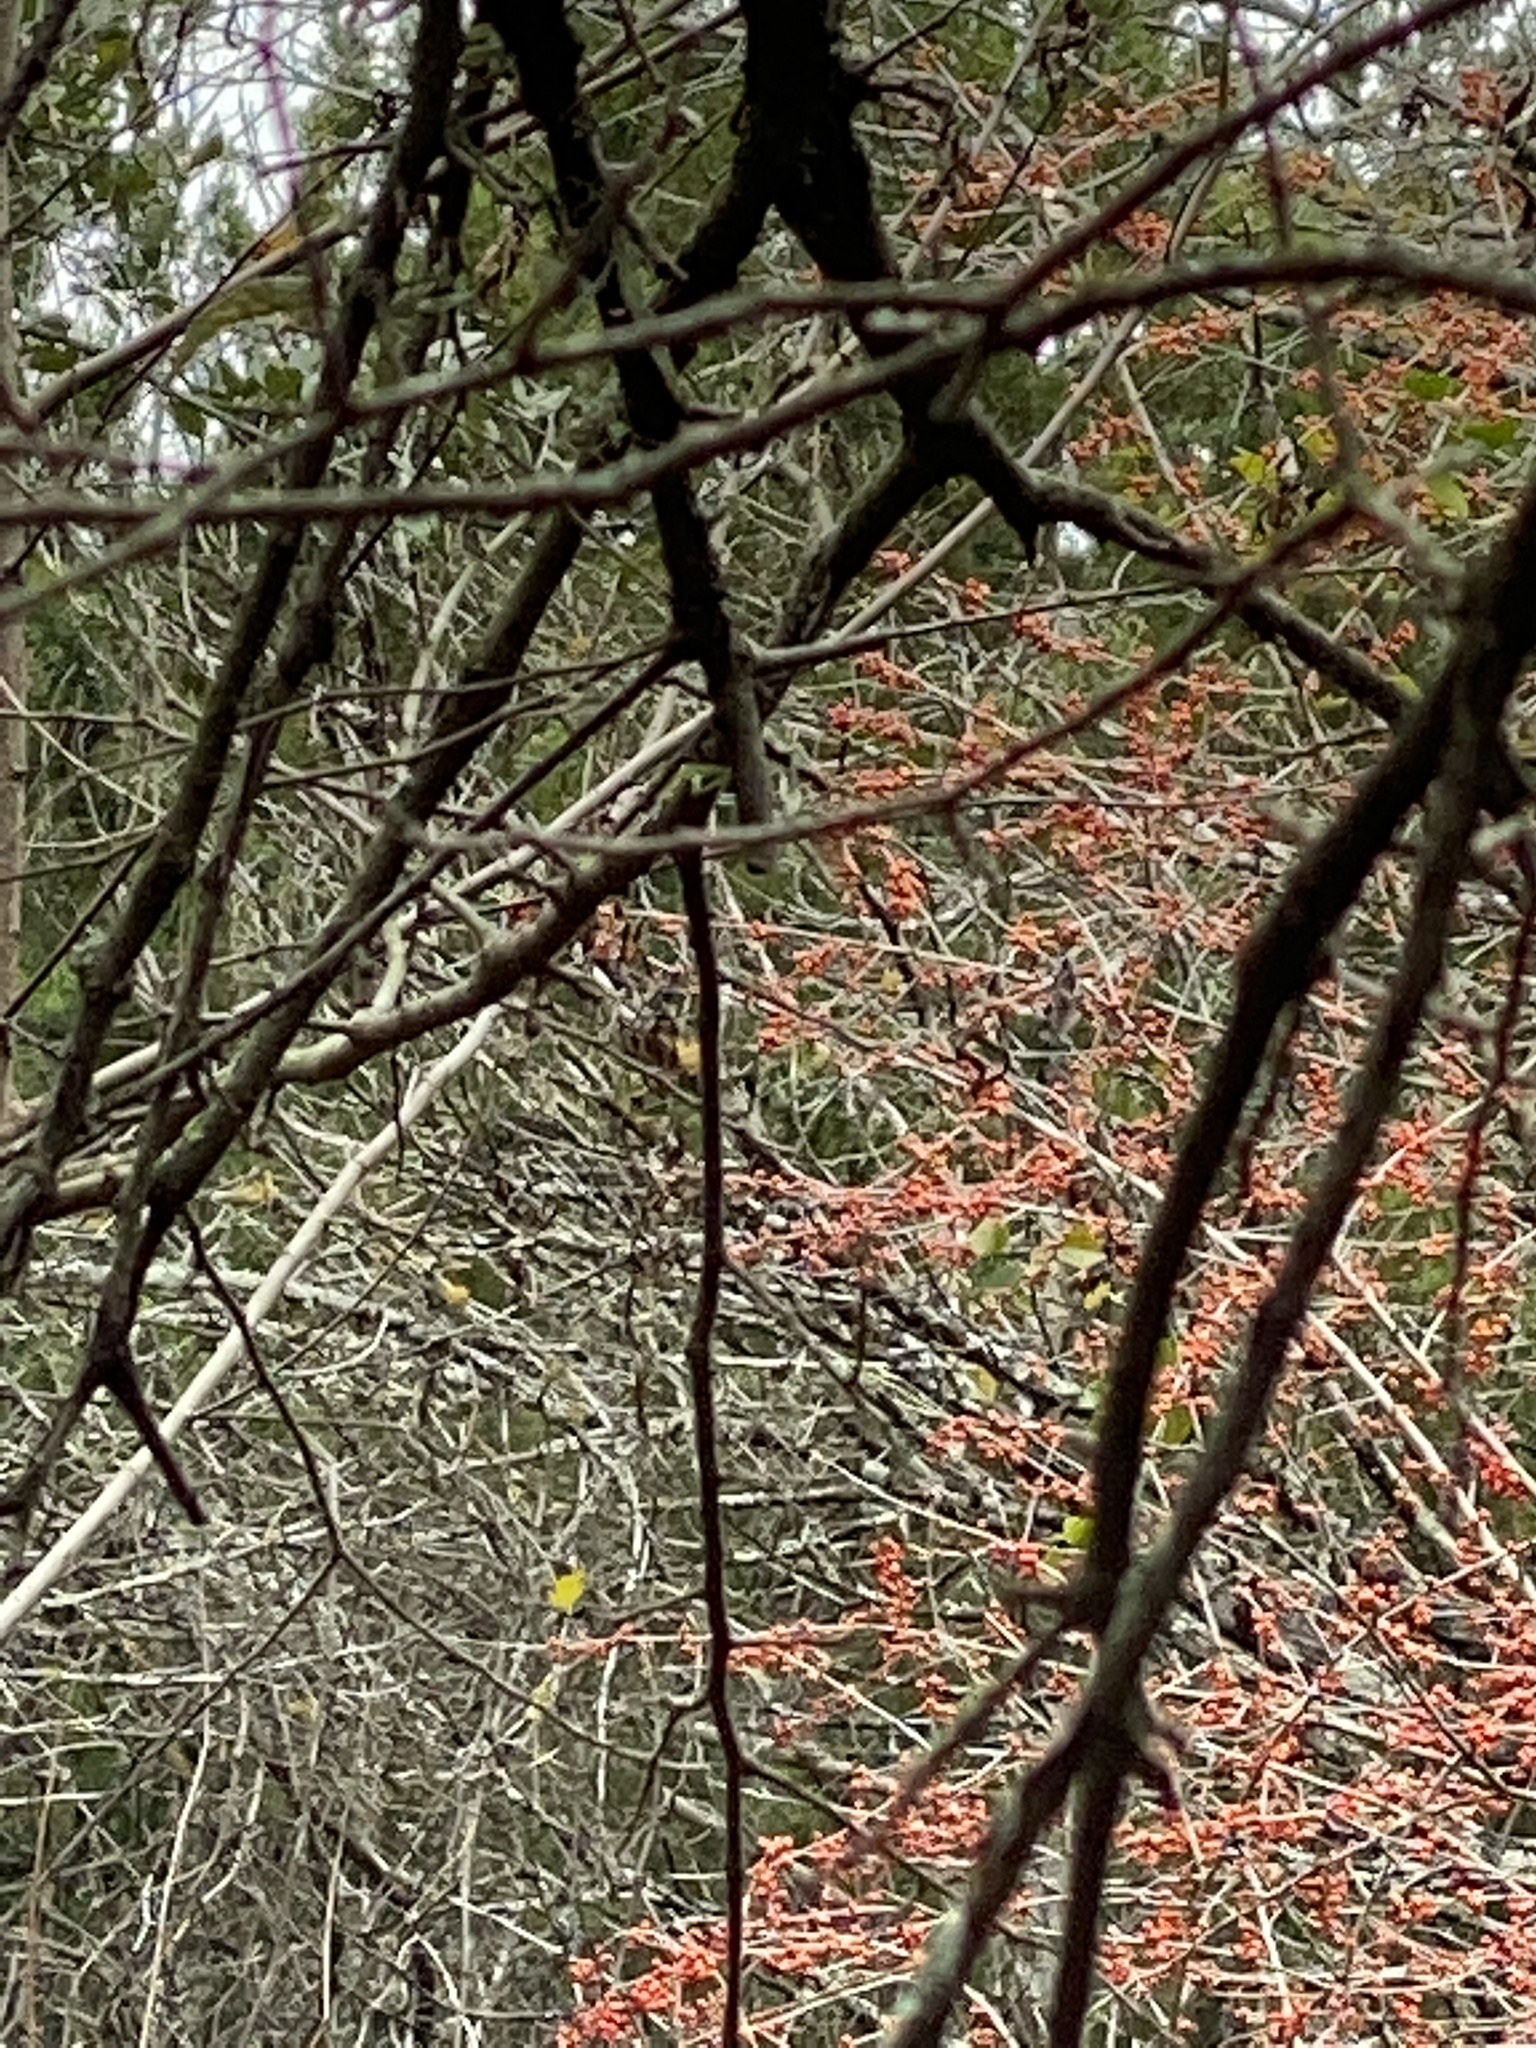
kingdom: Plantae
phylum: Tracheophyta
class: Magnoliopsida
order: Aquifoliales
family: Aquifoliaceae
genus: Ilex
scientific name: Ilex decidua
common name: Possum-haw
